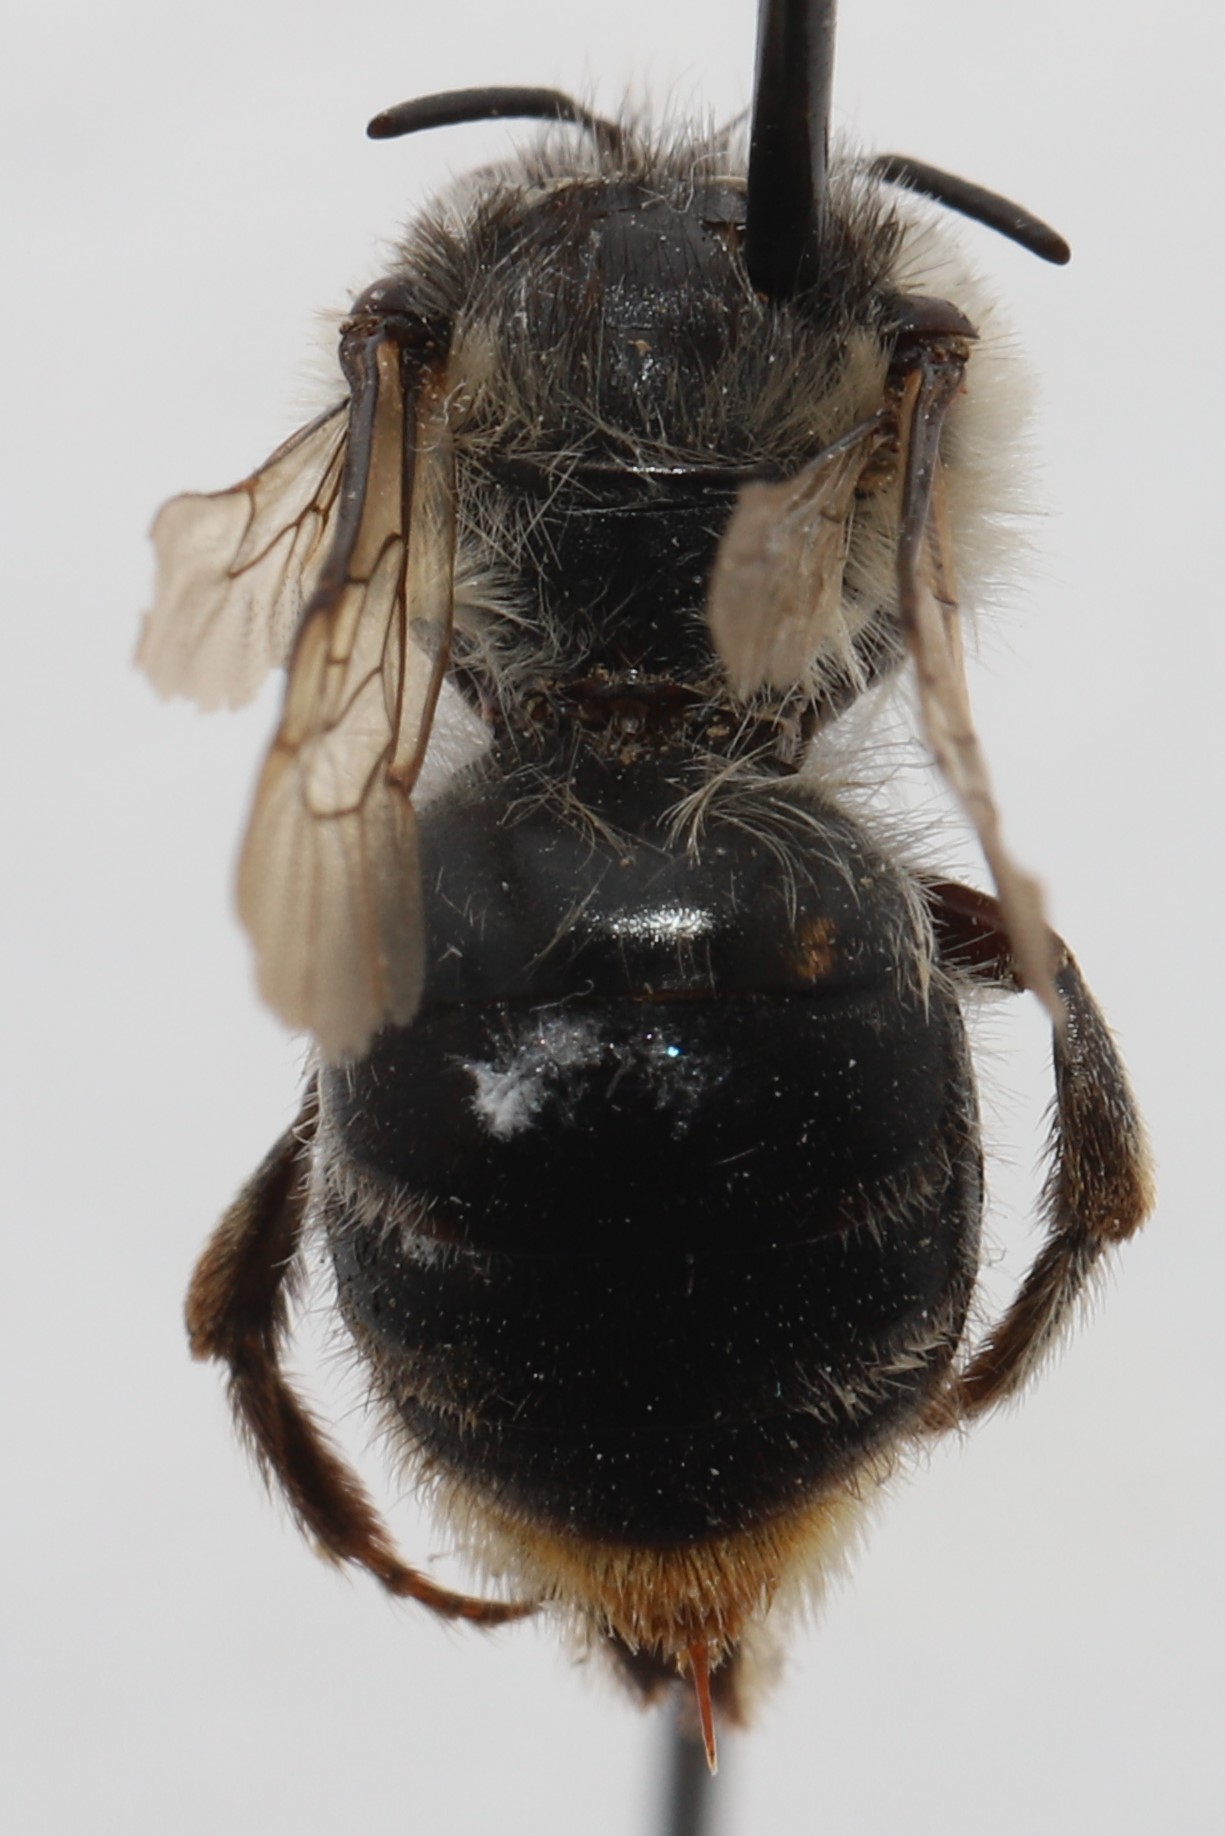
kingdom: Animalia
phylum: Arthropoda
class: Insecta
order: Hymenoptera
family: Apidae
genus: Anthophora
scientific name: Anthophora terminalis
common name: Orange-tipped wood-digger bee
